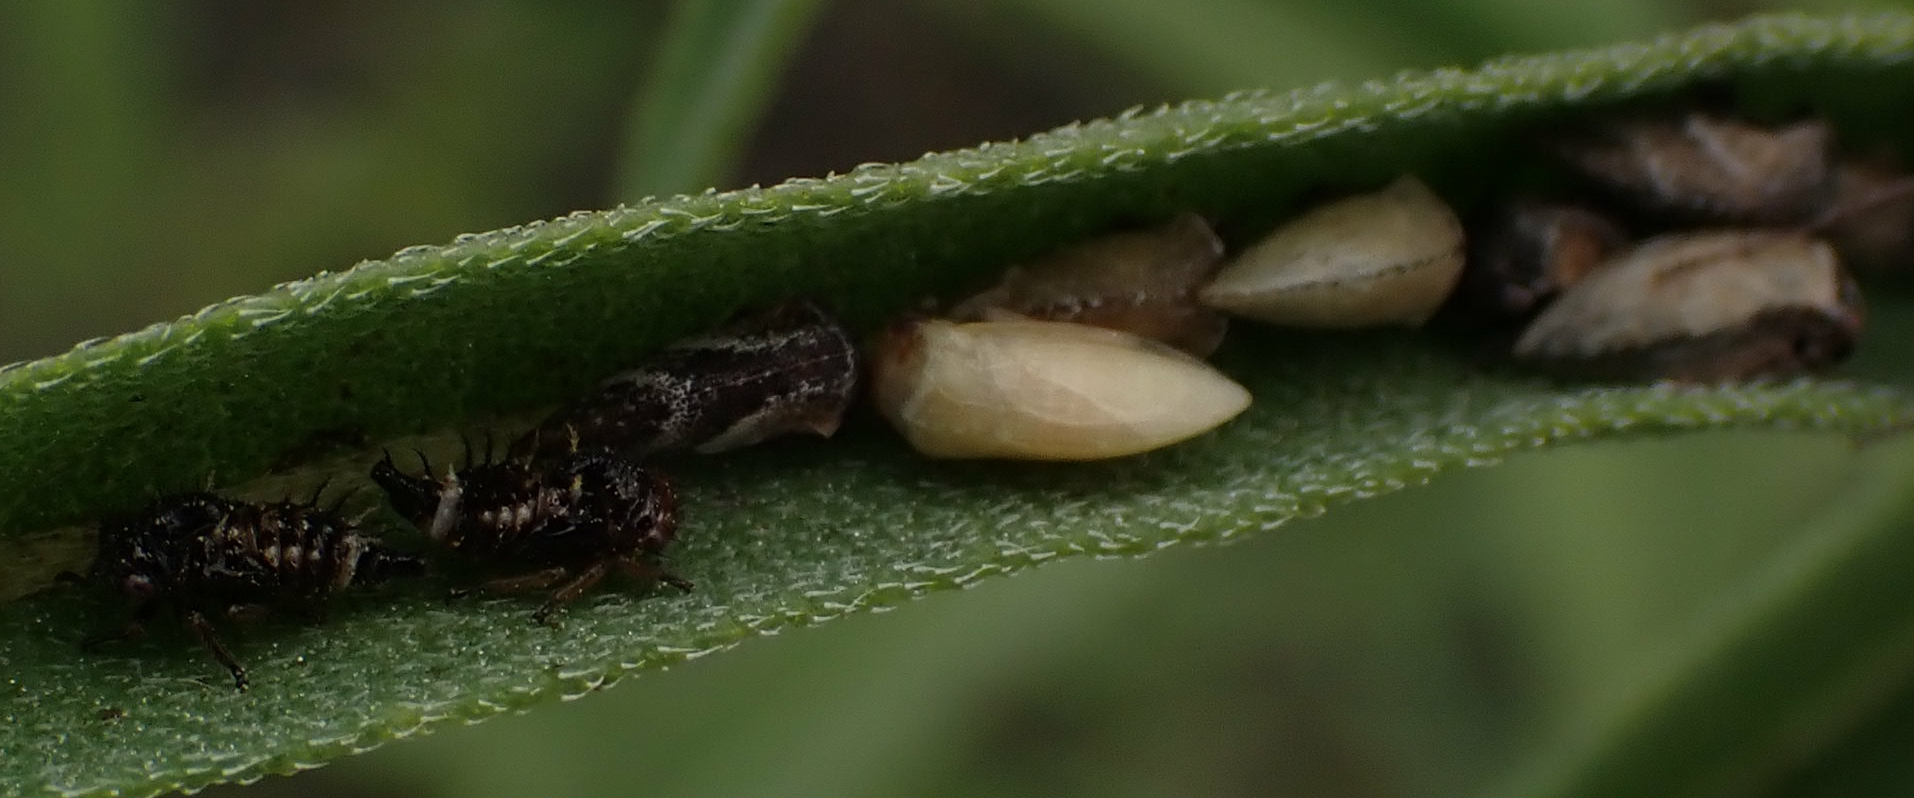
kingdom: Animalia
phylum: Arthropoda
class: Insecta
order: Hemiptera
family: Membracidae
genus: Publilia
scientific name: Publilia modesta
